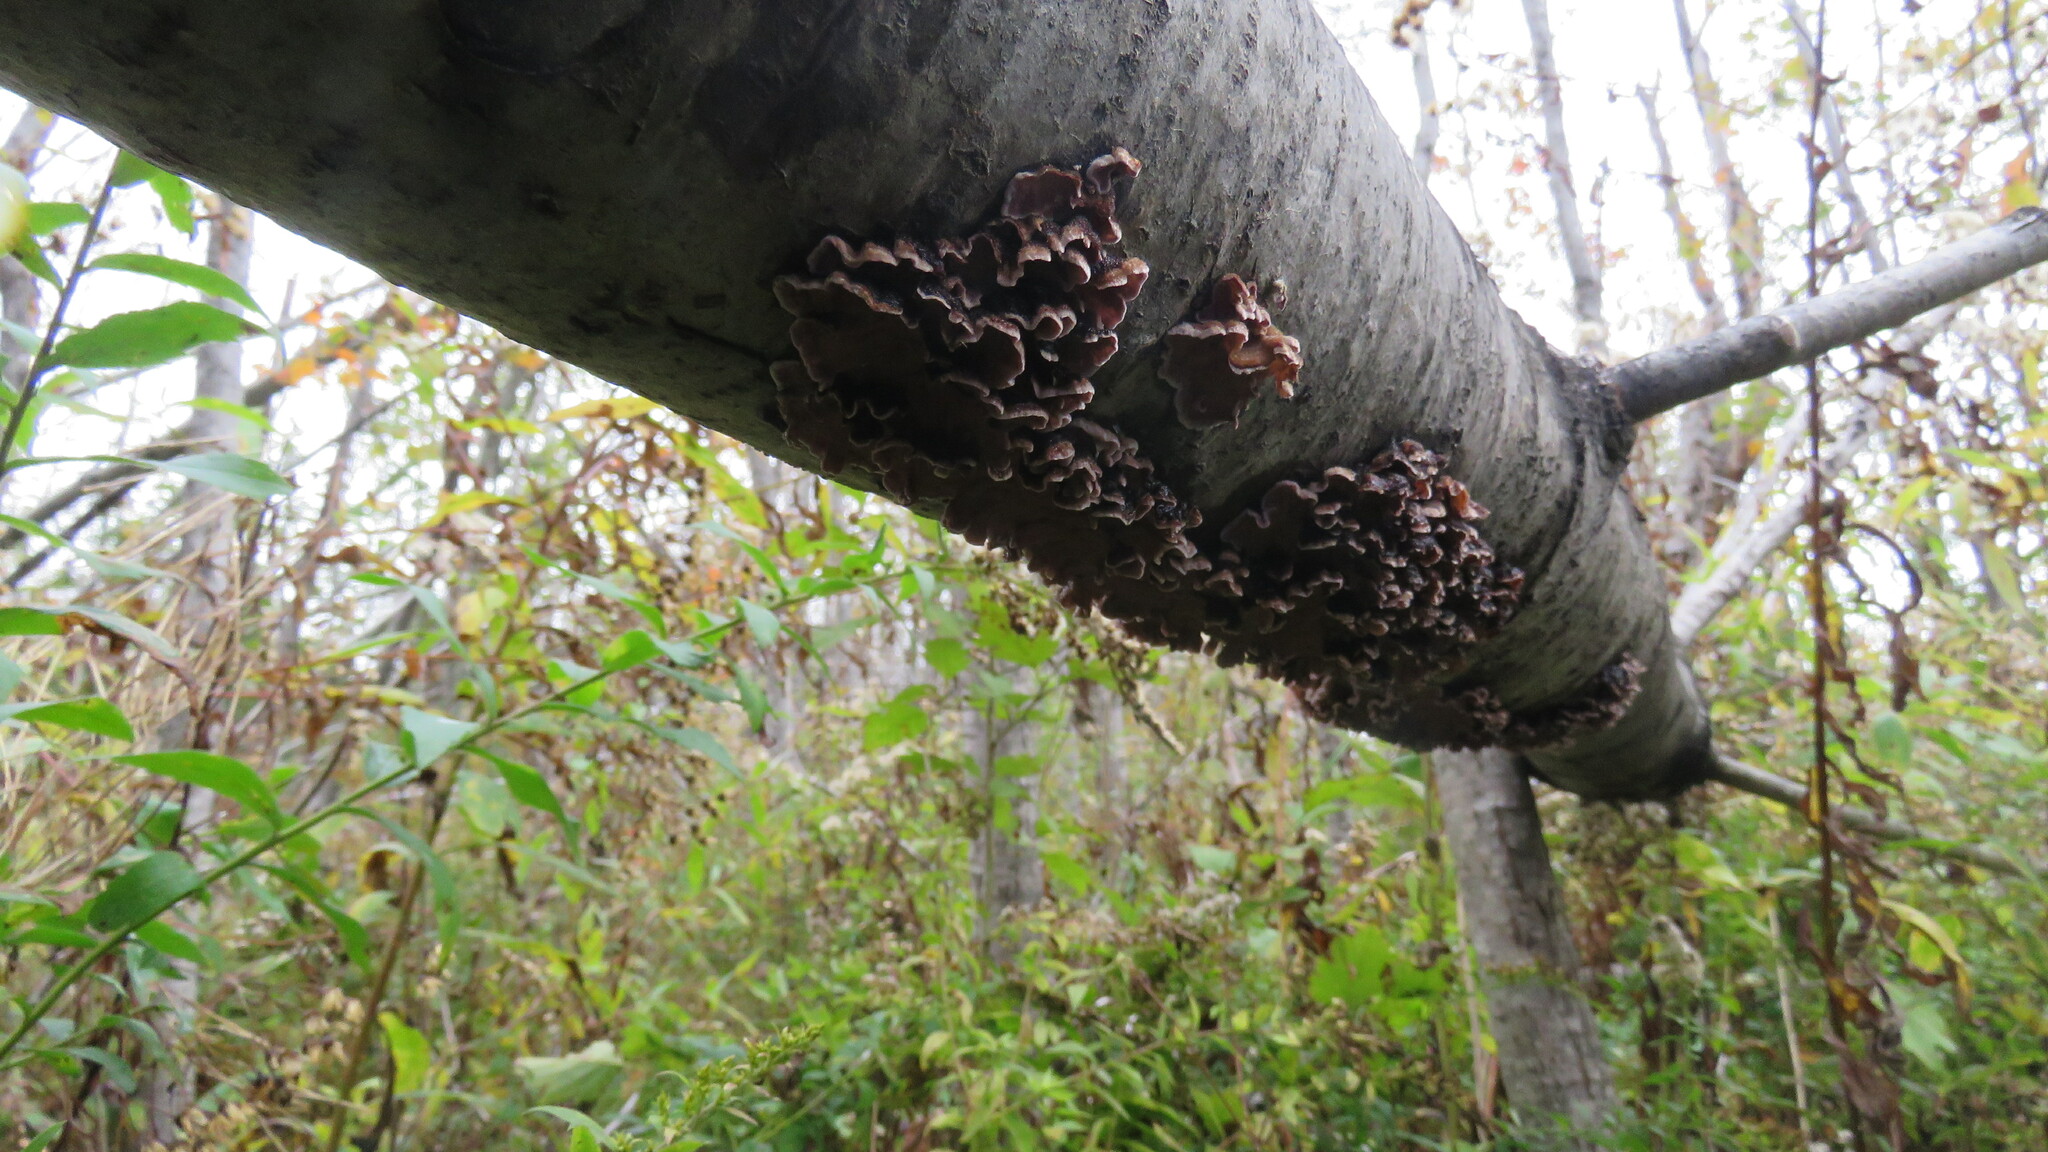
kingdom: Fungi
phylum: Basidiomycota
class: Agaricomycetes
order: Agaricales
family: Cyphellaceae
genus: Chondrostereum
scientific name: Chondrostereum purpureum
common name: Silver leaf disease
